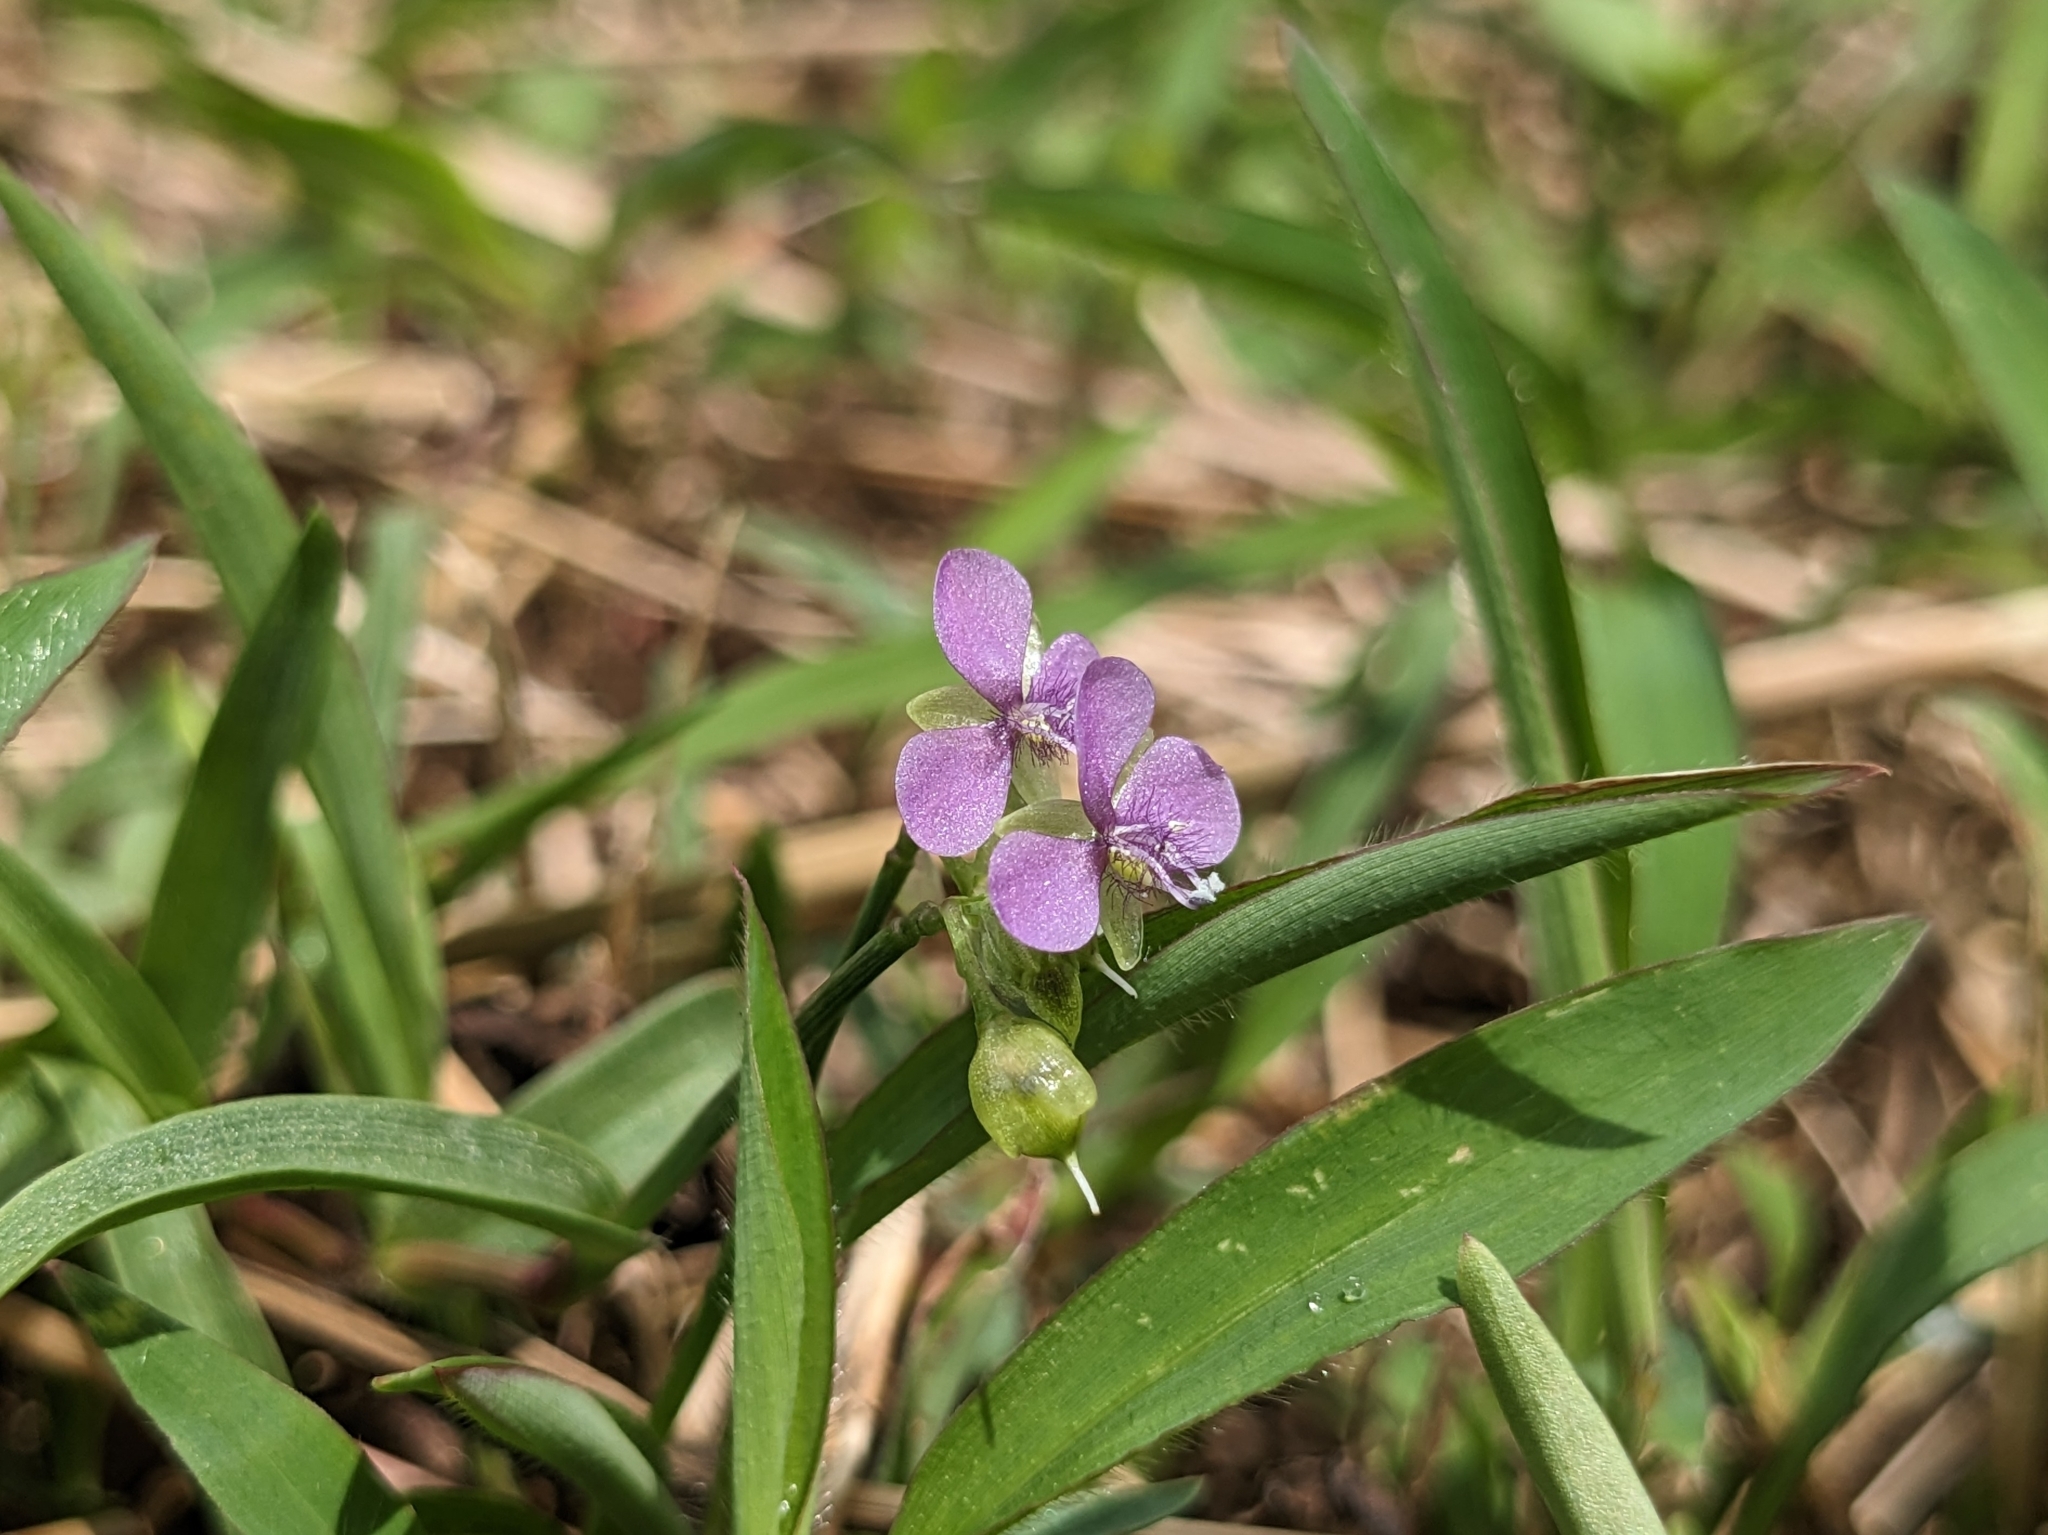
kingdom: Plantae
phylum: Tracheophyta
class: Liliopsida
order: Commelinales
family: Commelinaceae
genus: Murdannia
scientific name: Murdannia nudiflora
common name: Nakedstem dewflower
